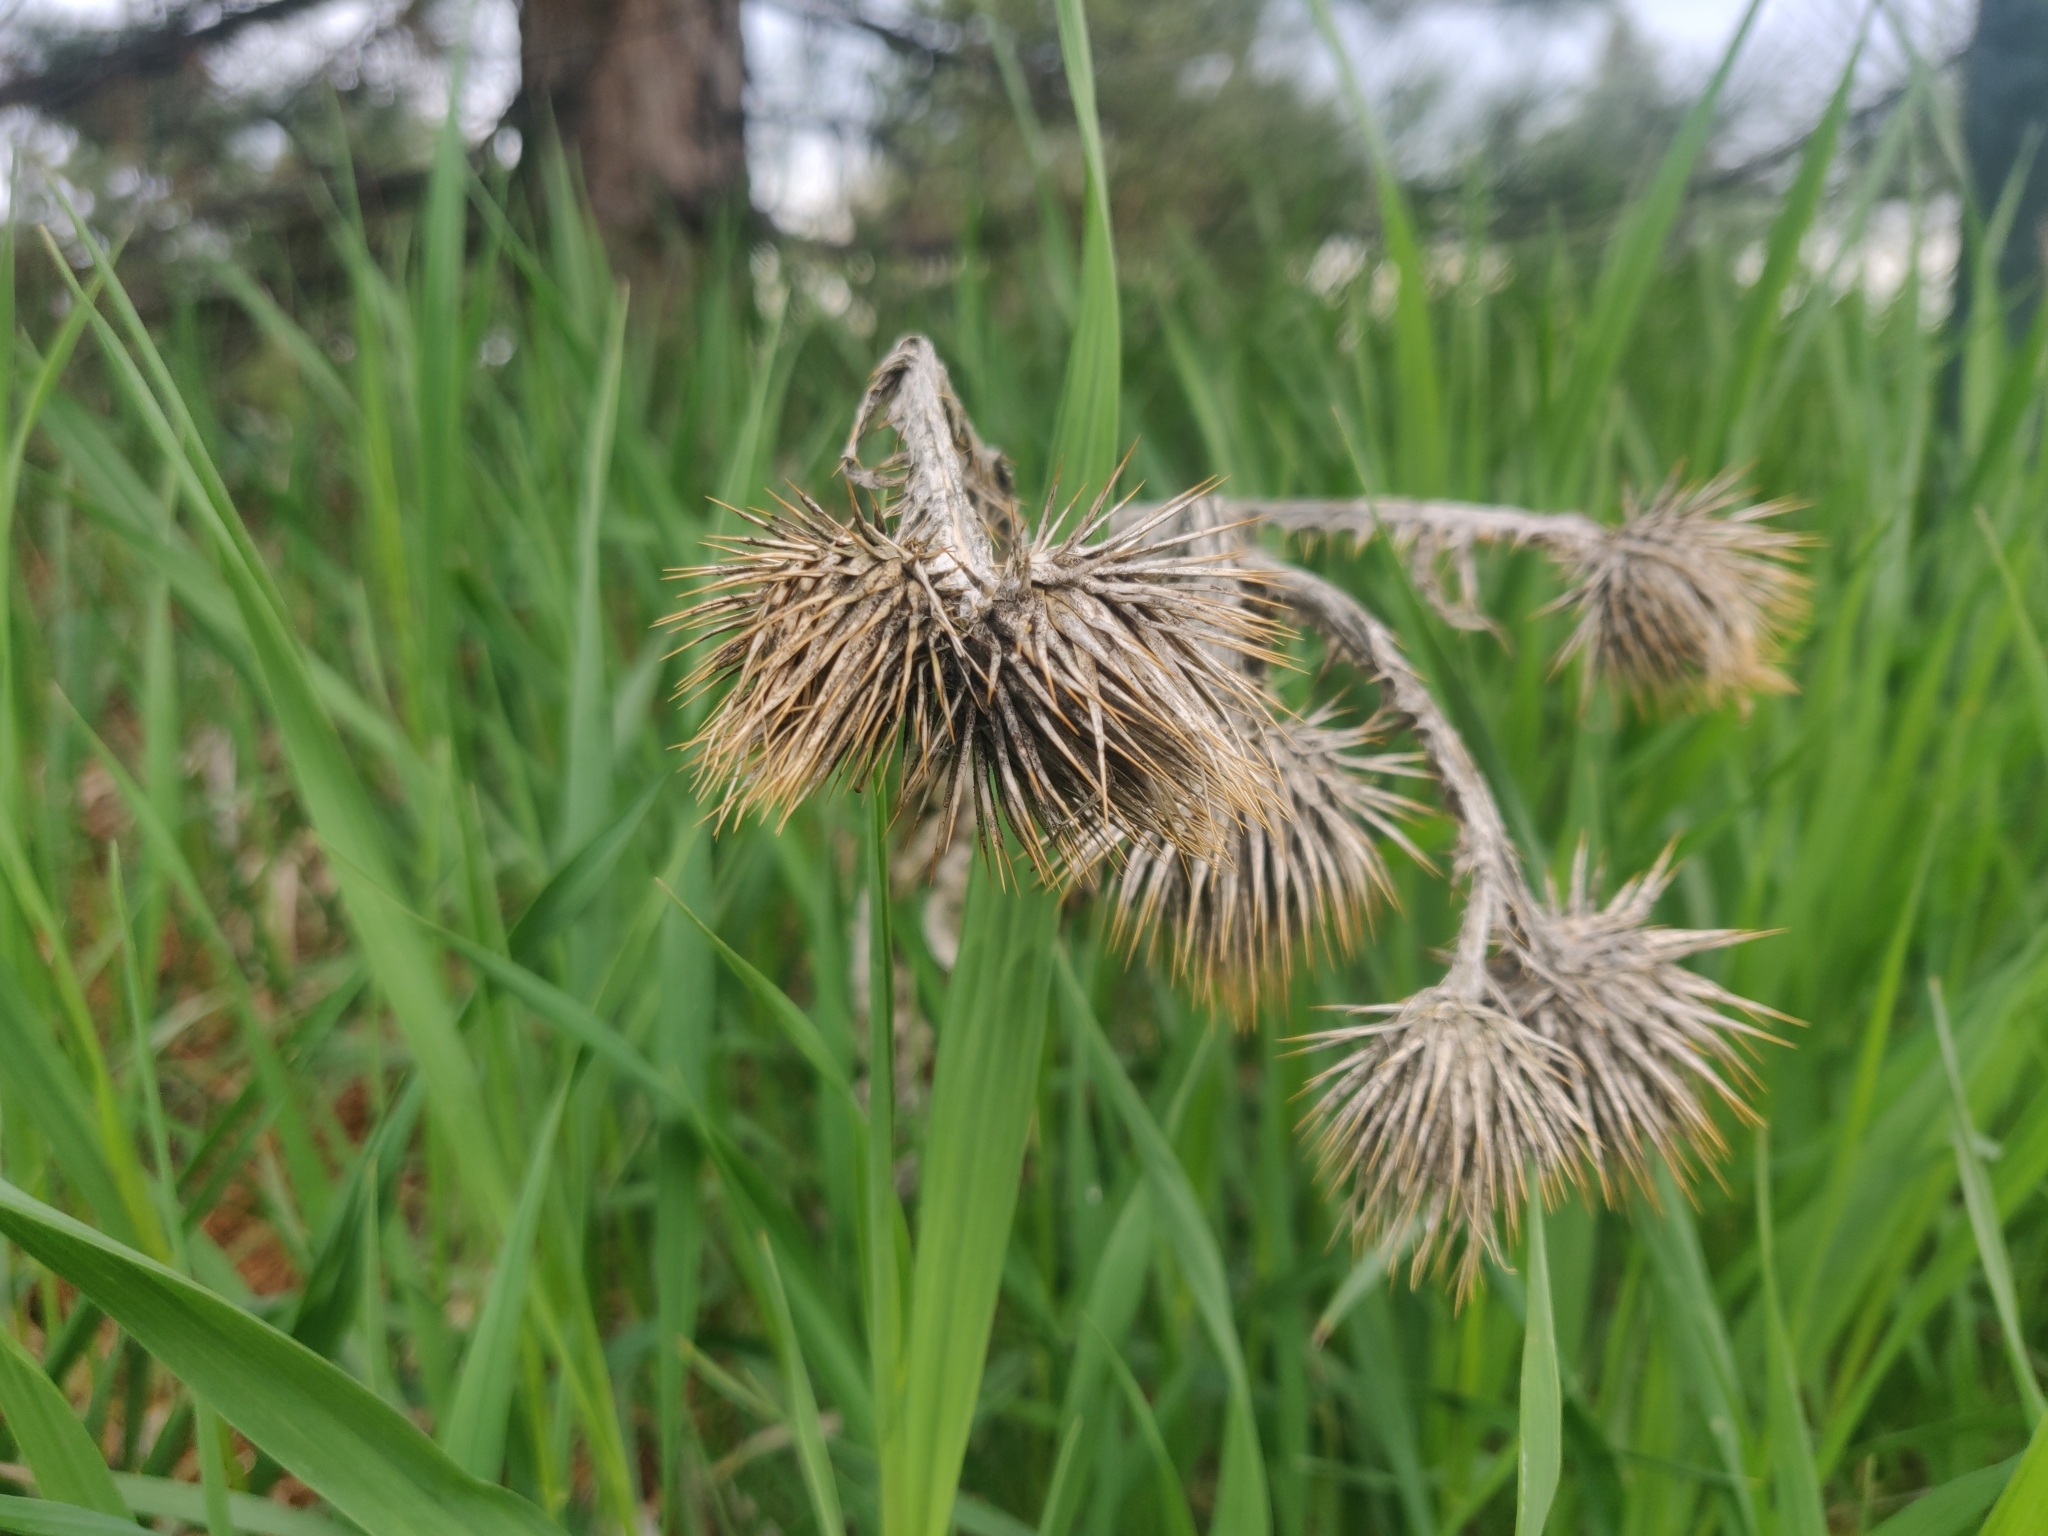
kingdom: Plantae
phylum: Tracheophyta
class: Magnoliopsida
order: Asterales
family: Asteraceae
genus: Onopordum
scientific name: Onopordum acanthium
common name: Scotch thistle
